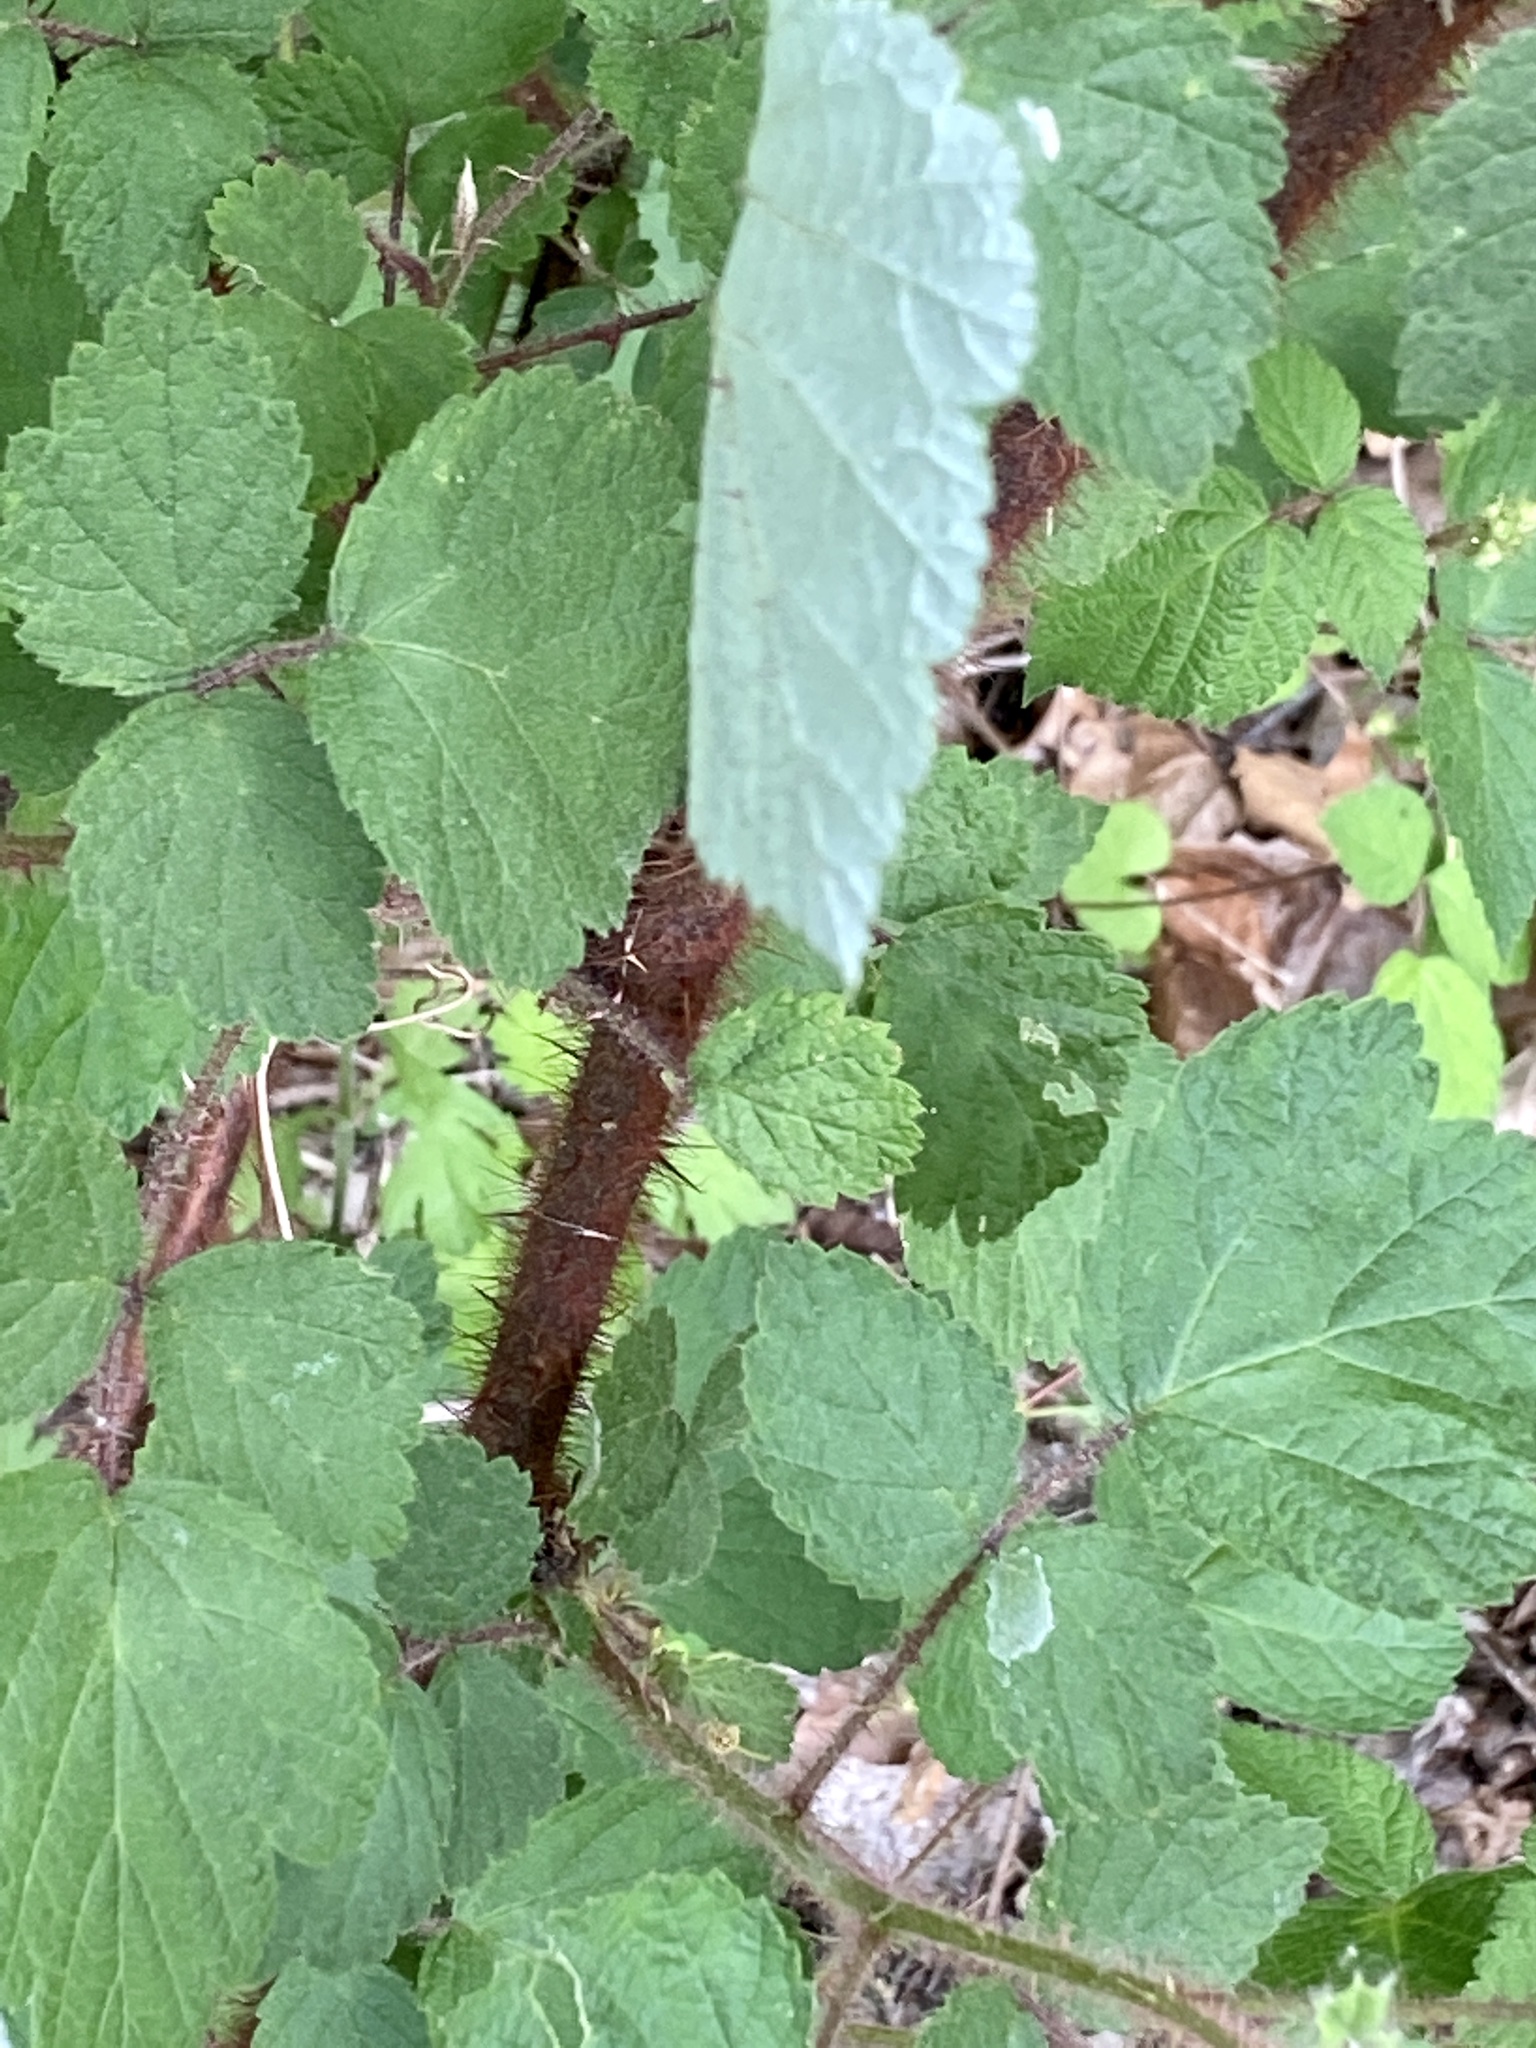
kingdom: Plantae
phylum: Tracheophyta
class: Magnoliopsida
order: Rosales
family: Rosaceae
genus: Rubus
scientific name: Rubus phoenicolasius
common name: Japanese wineberry
